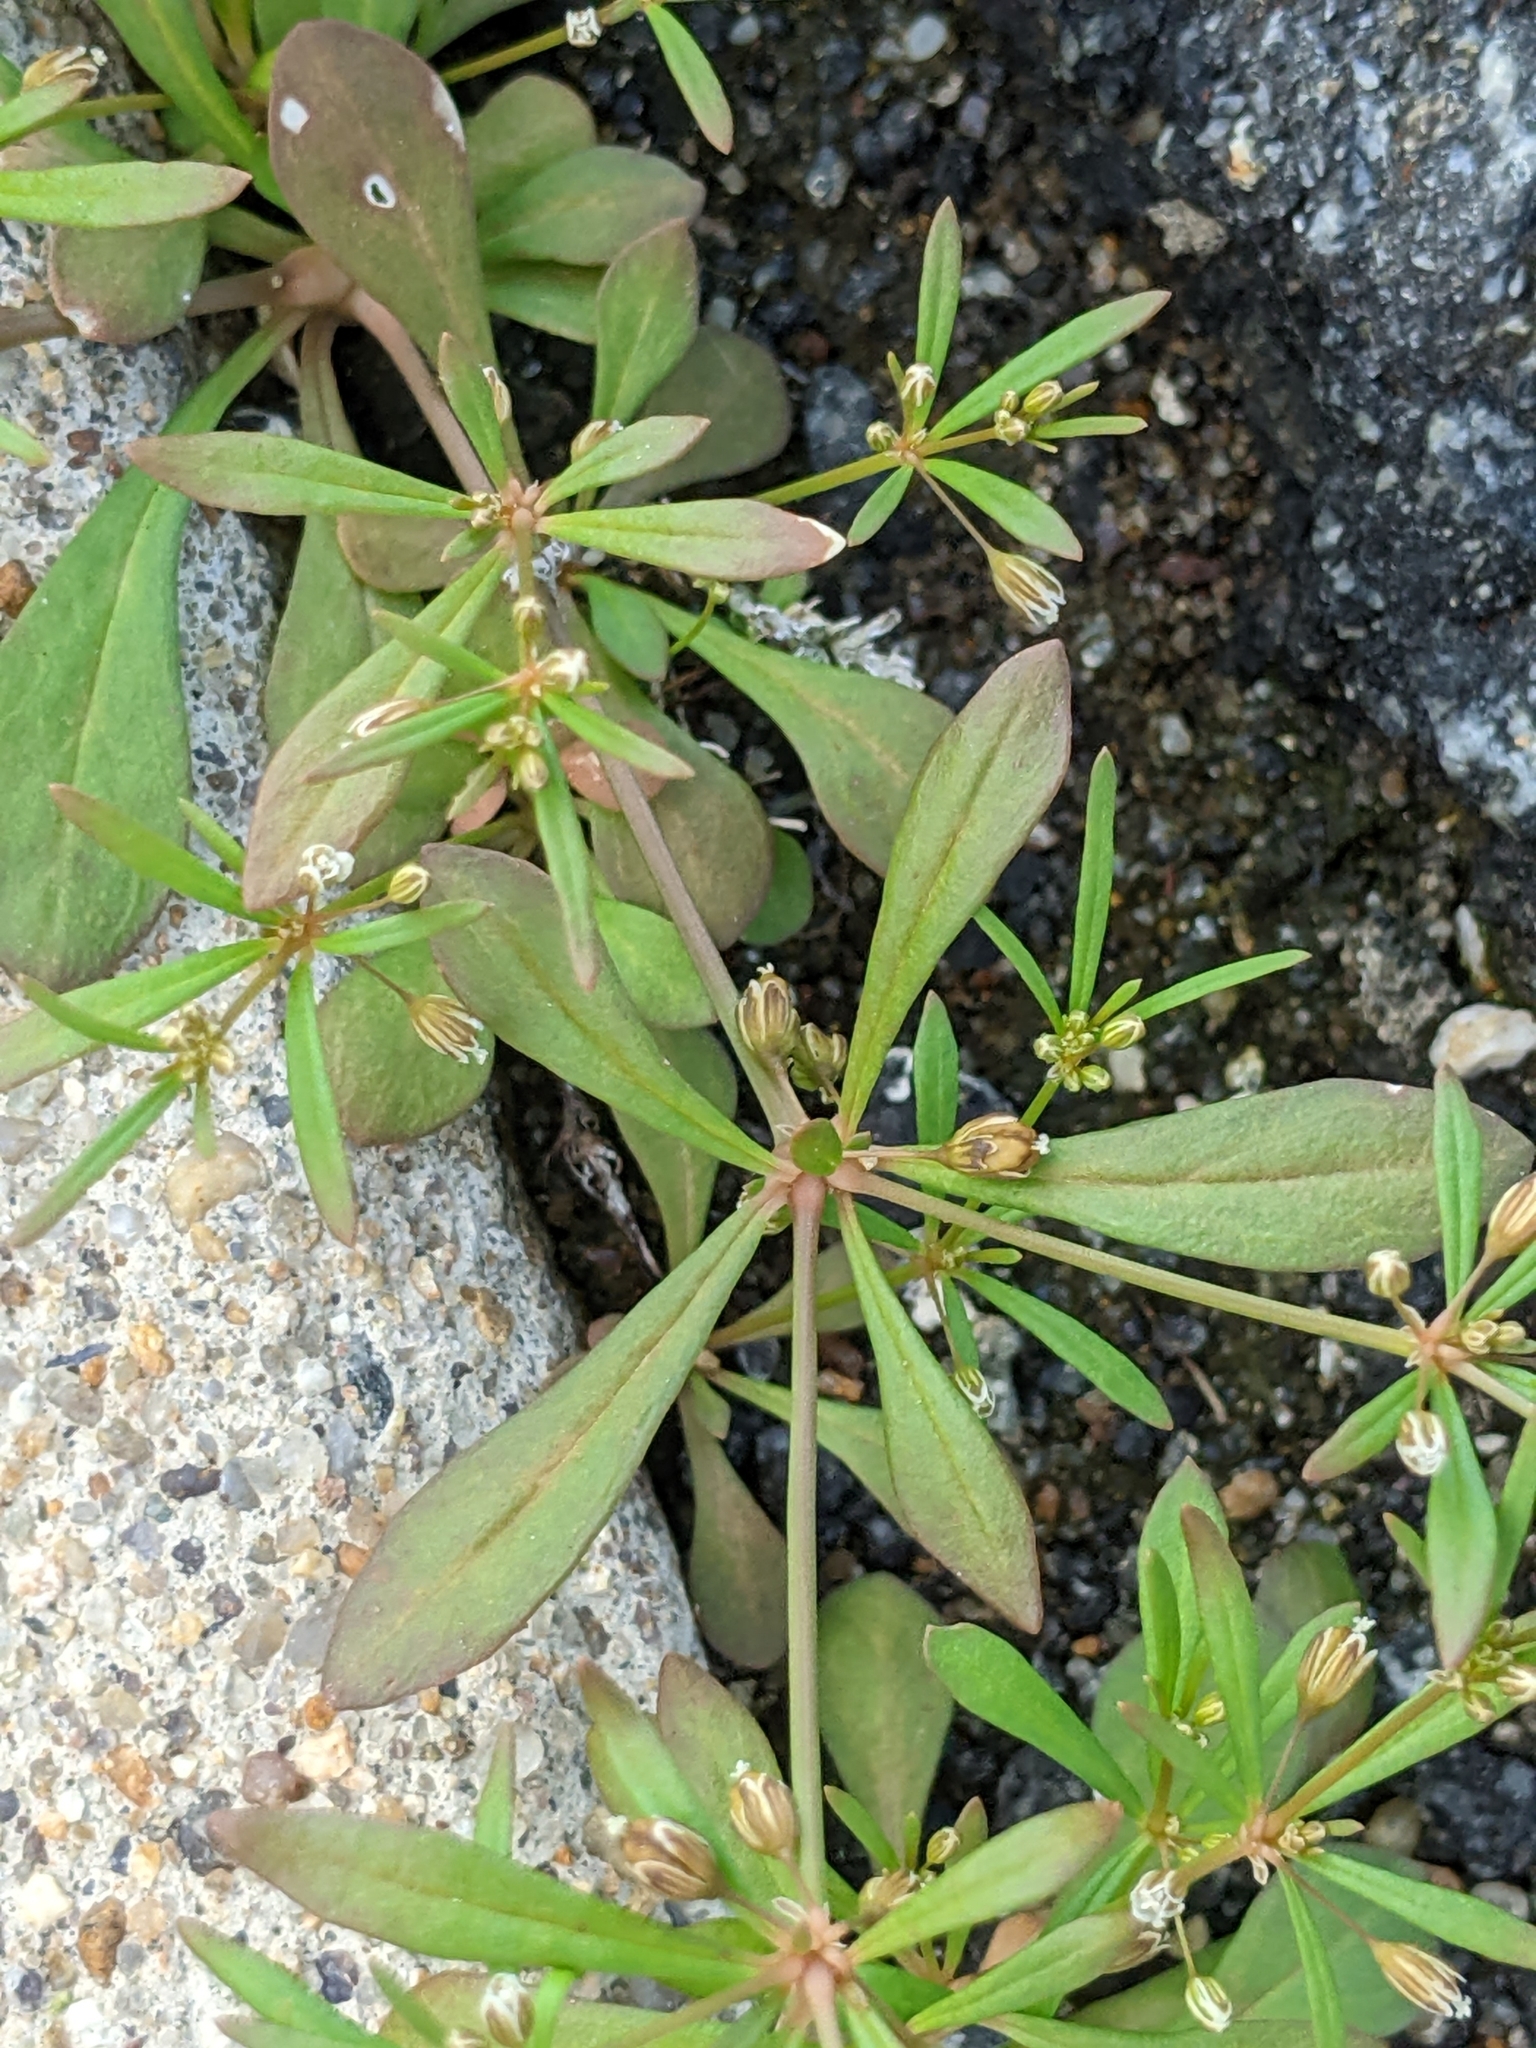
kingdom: Plantae
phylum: Tracheophyta
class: Magnoliopsida
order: Caryophyllales
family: Molluginaceae
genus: Mollugo
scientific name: Mollugo verticillata
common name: Green carpetweed
